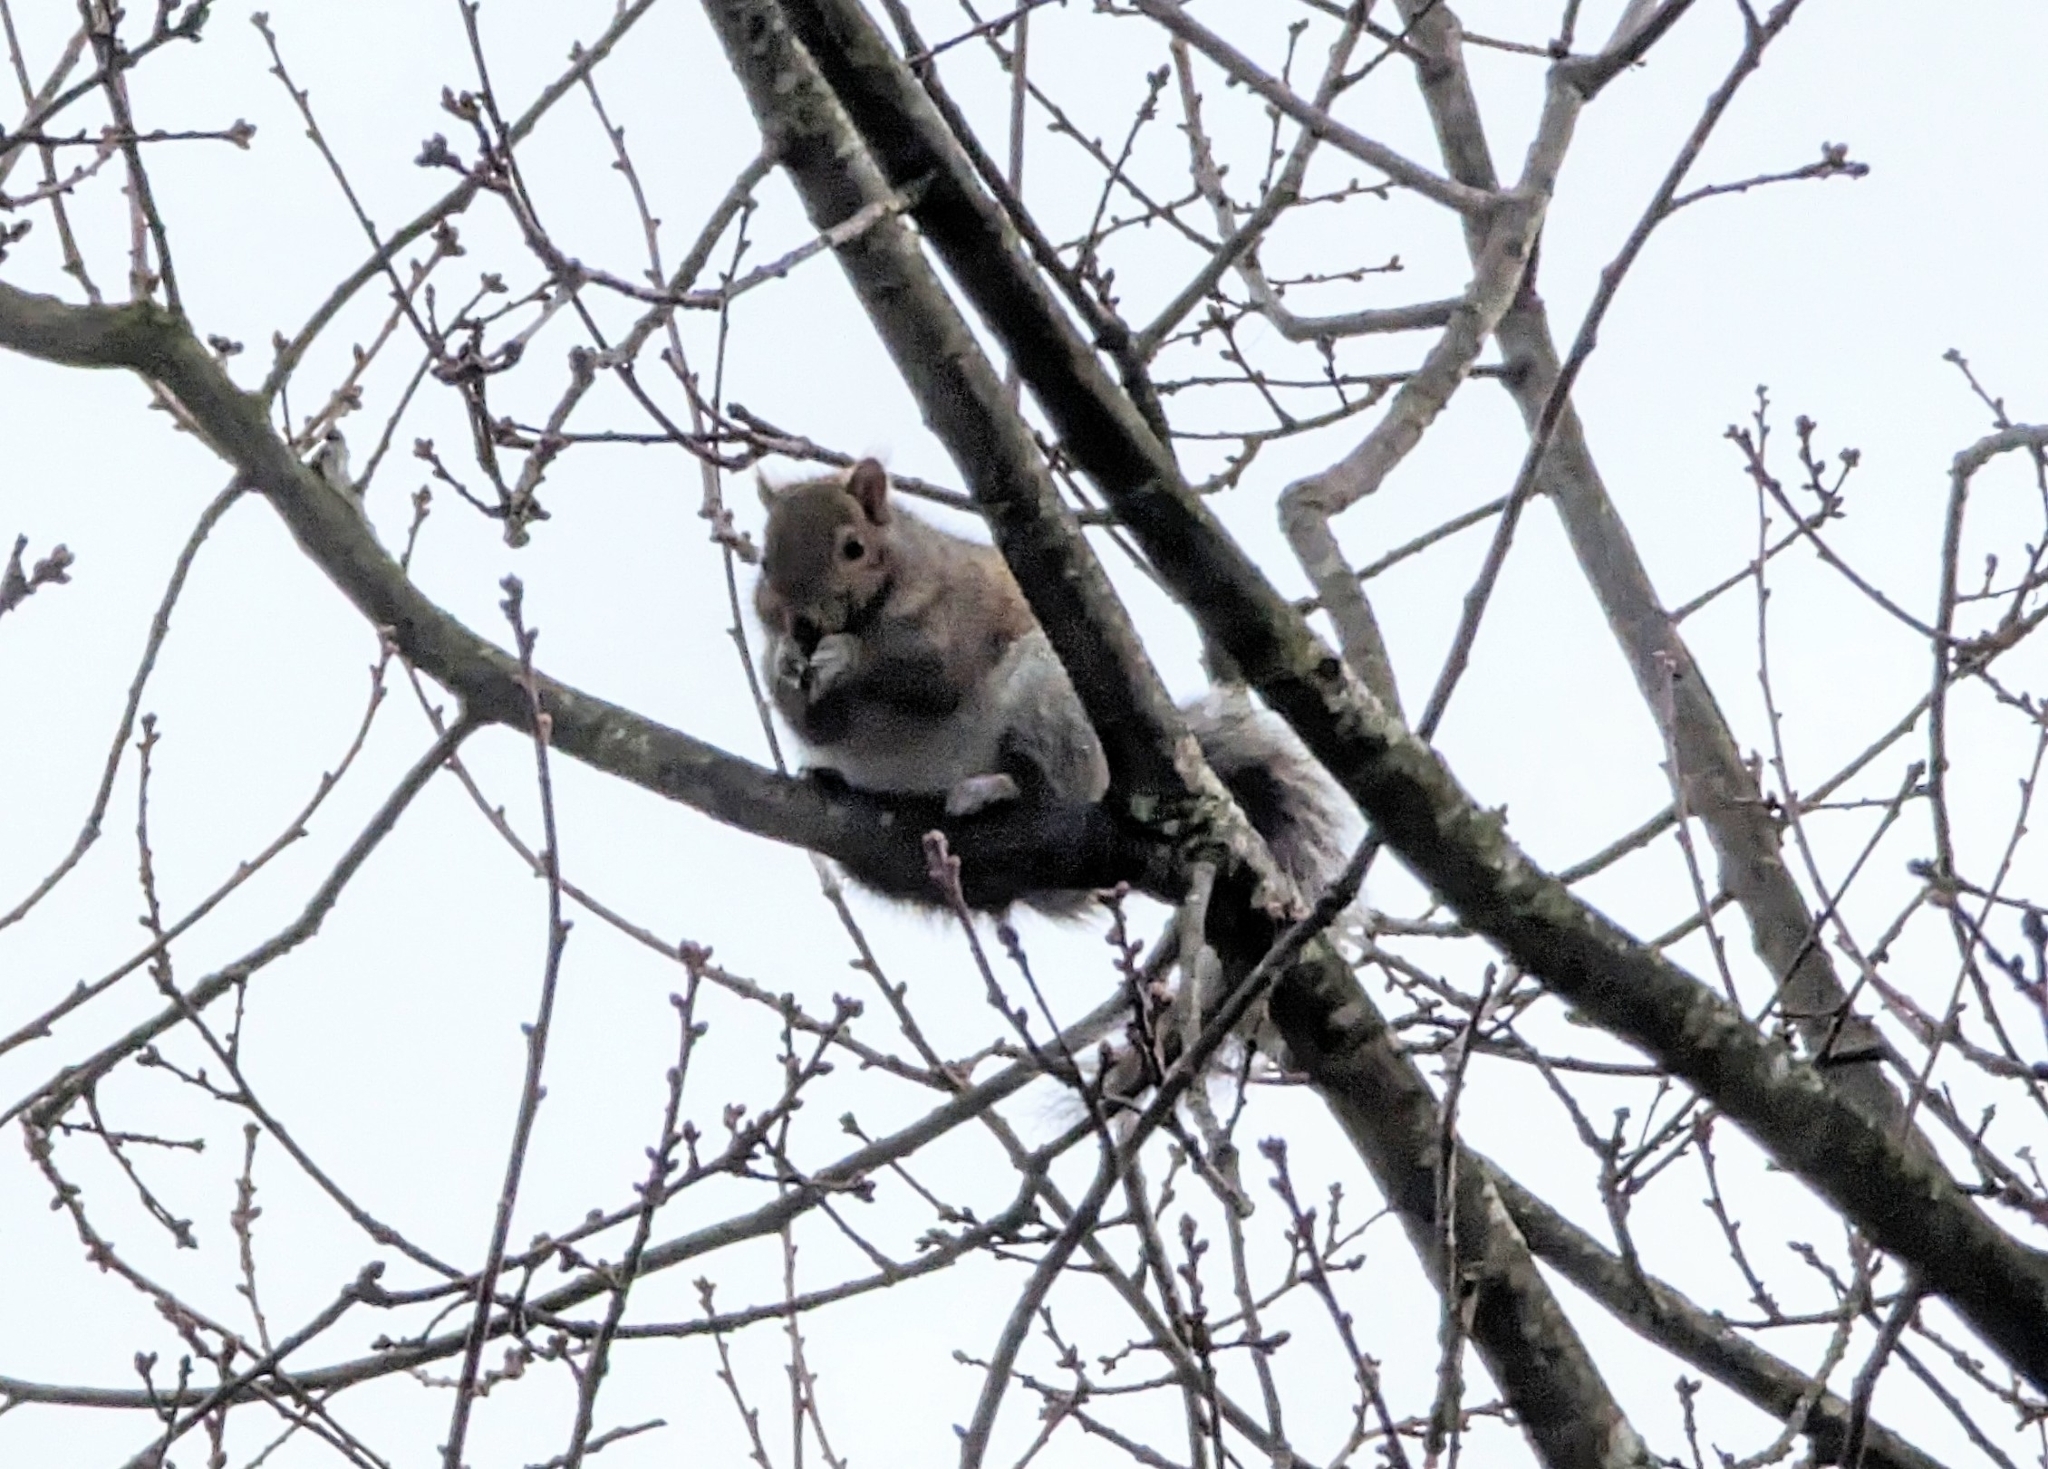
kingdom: Animalia
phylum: Chordata
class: Mammalia
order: Rodentia
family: Sciuridae
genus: Sciurus
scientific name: Sciurus carolinensis
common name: Eastern gray squirrel
